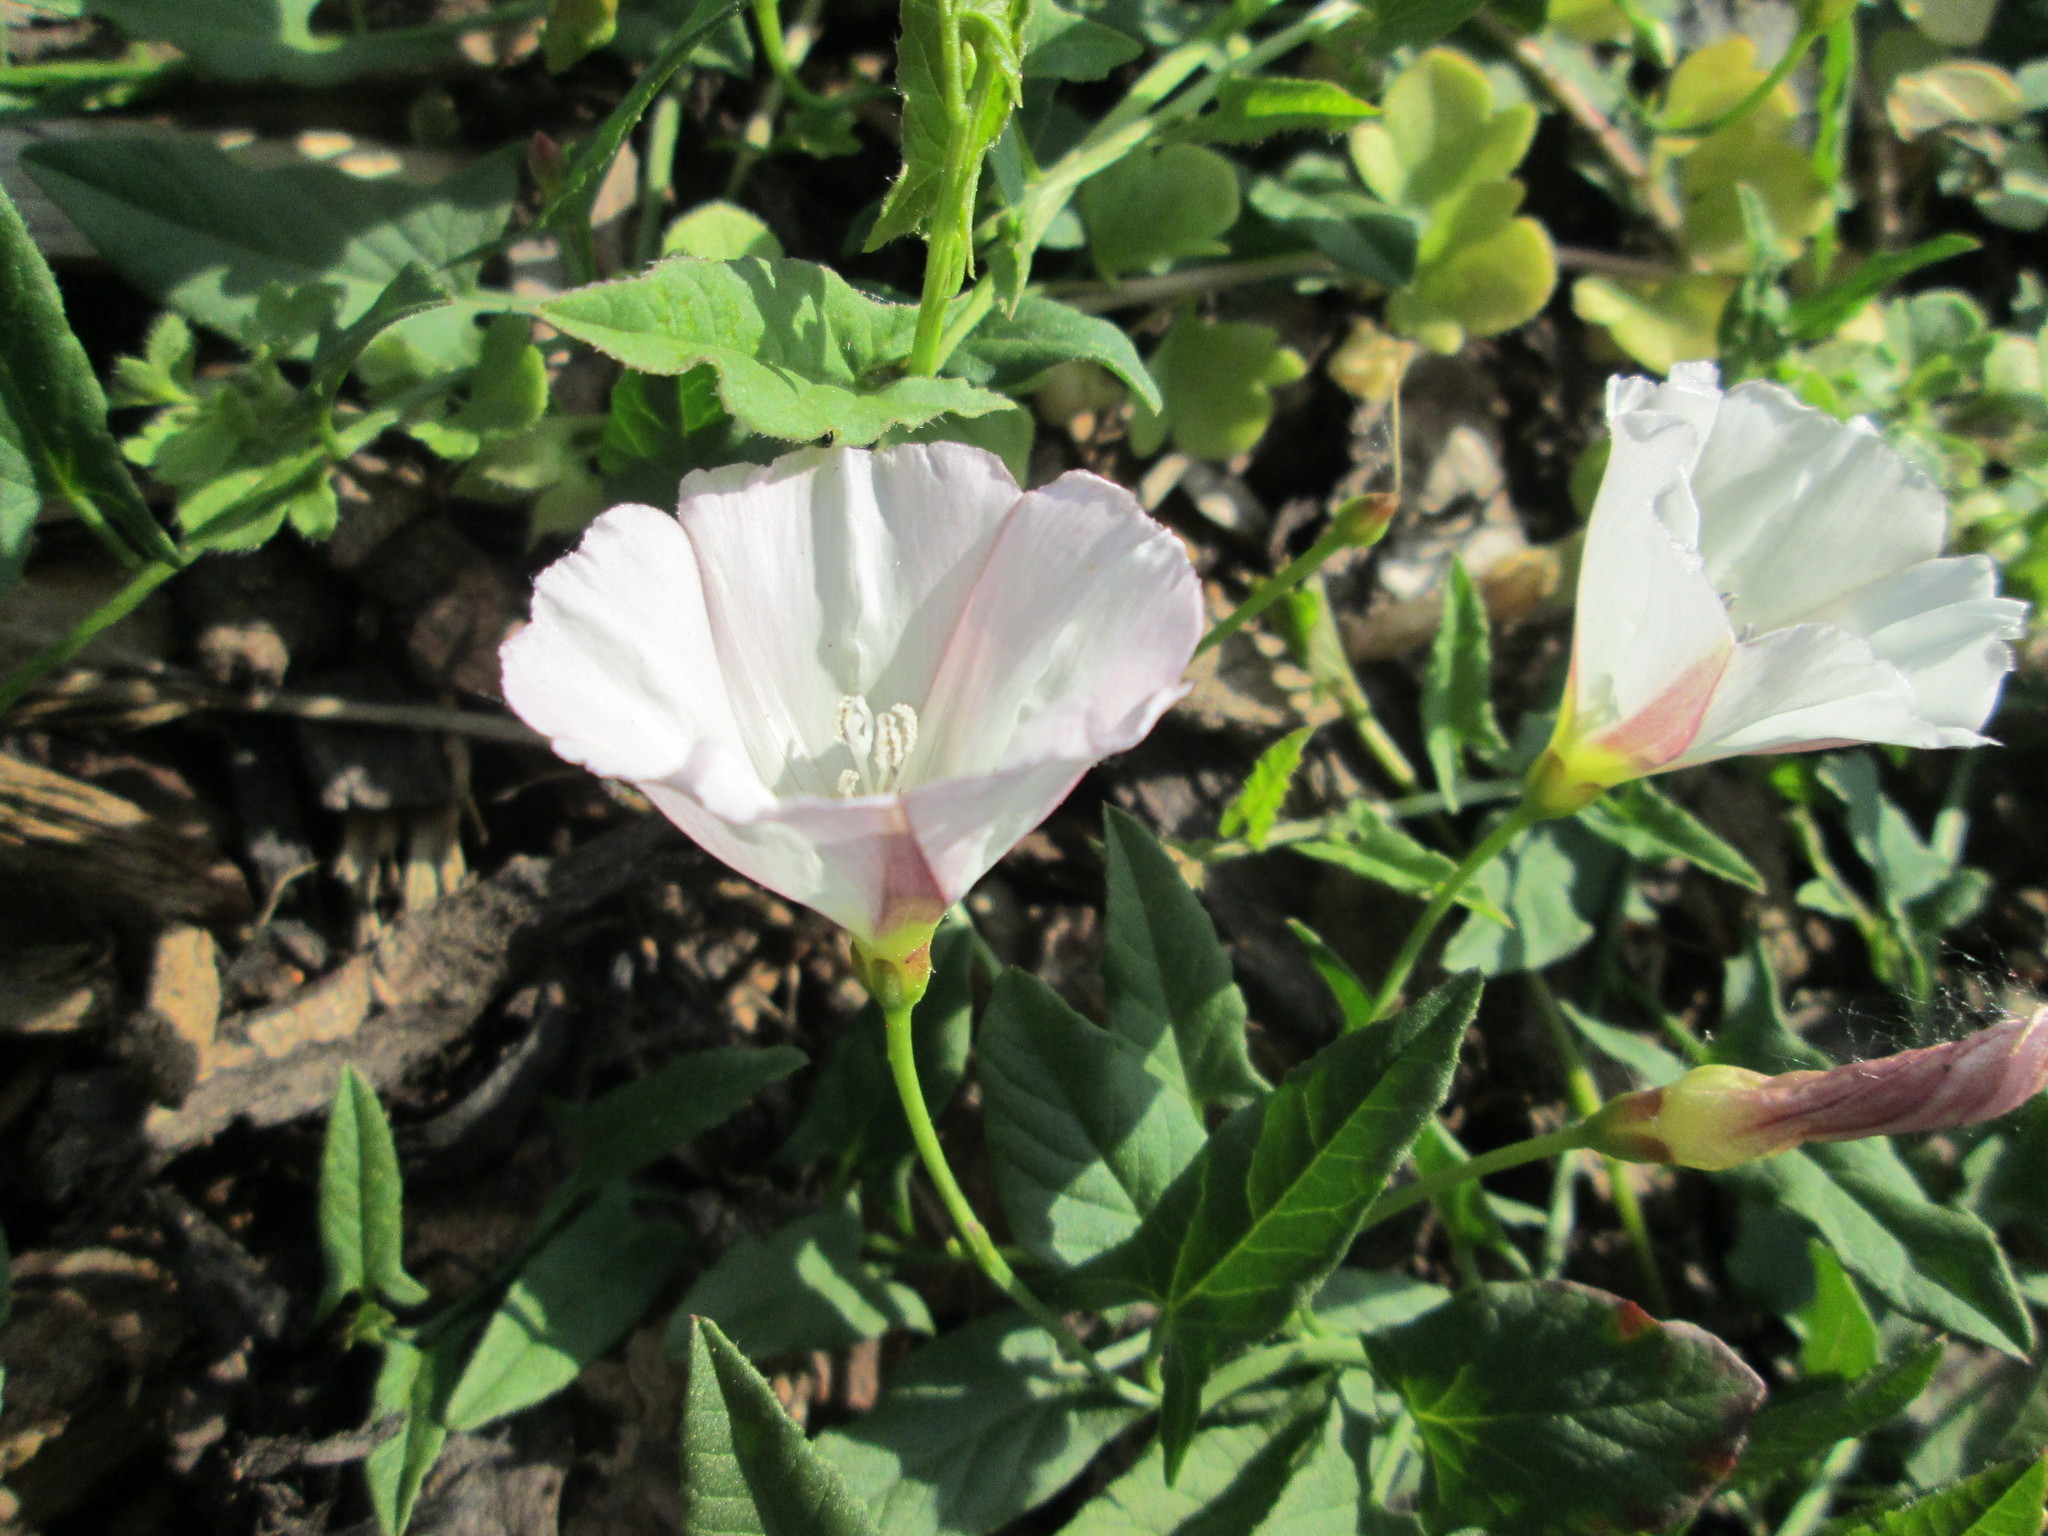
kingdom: Plantae
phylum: Tracheophyta
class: Magnoliopsida
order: Solanales
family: Convolvulaceae
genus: Convolvulus
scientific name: Convolvulus arvensis
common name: Field bindweed
